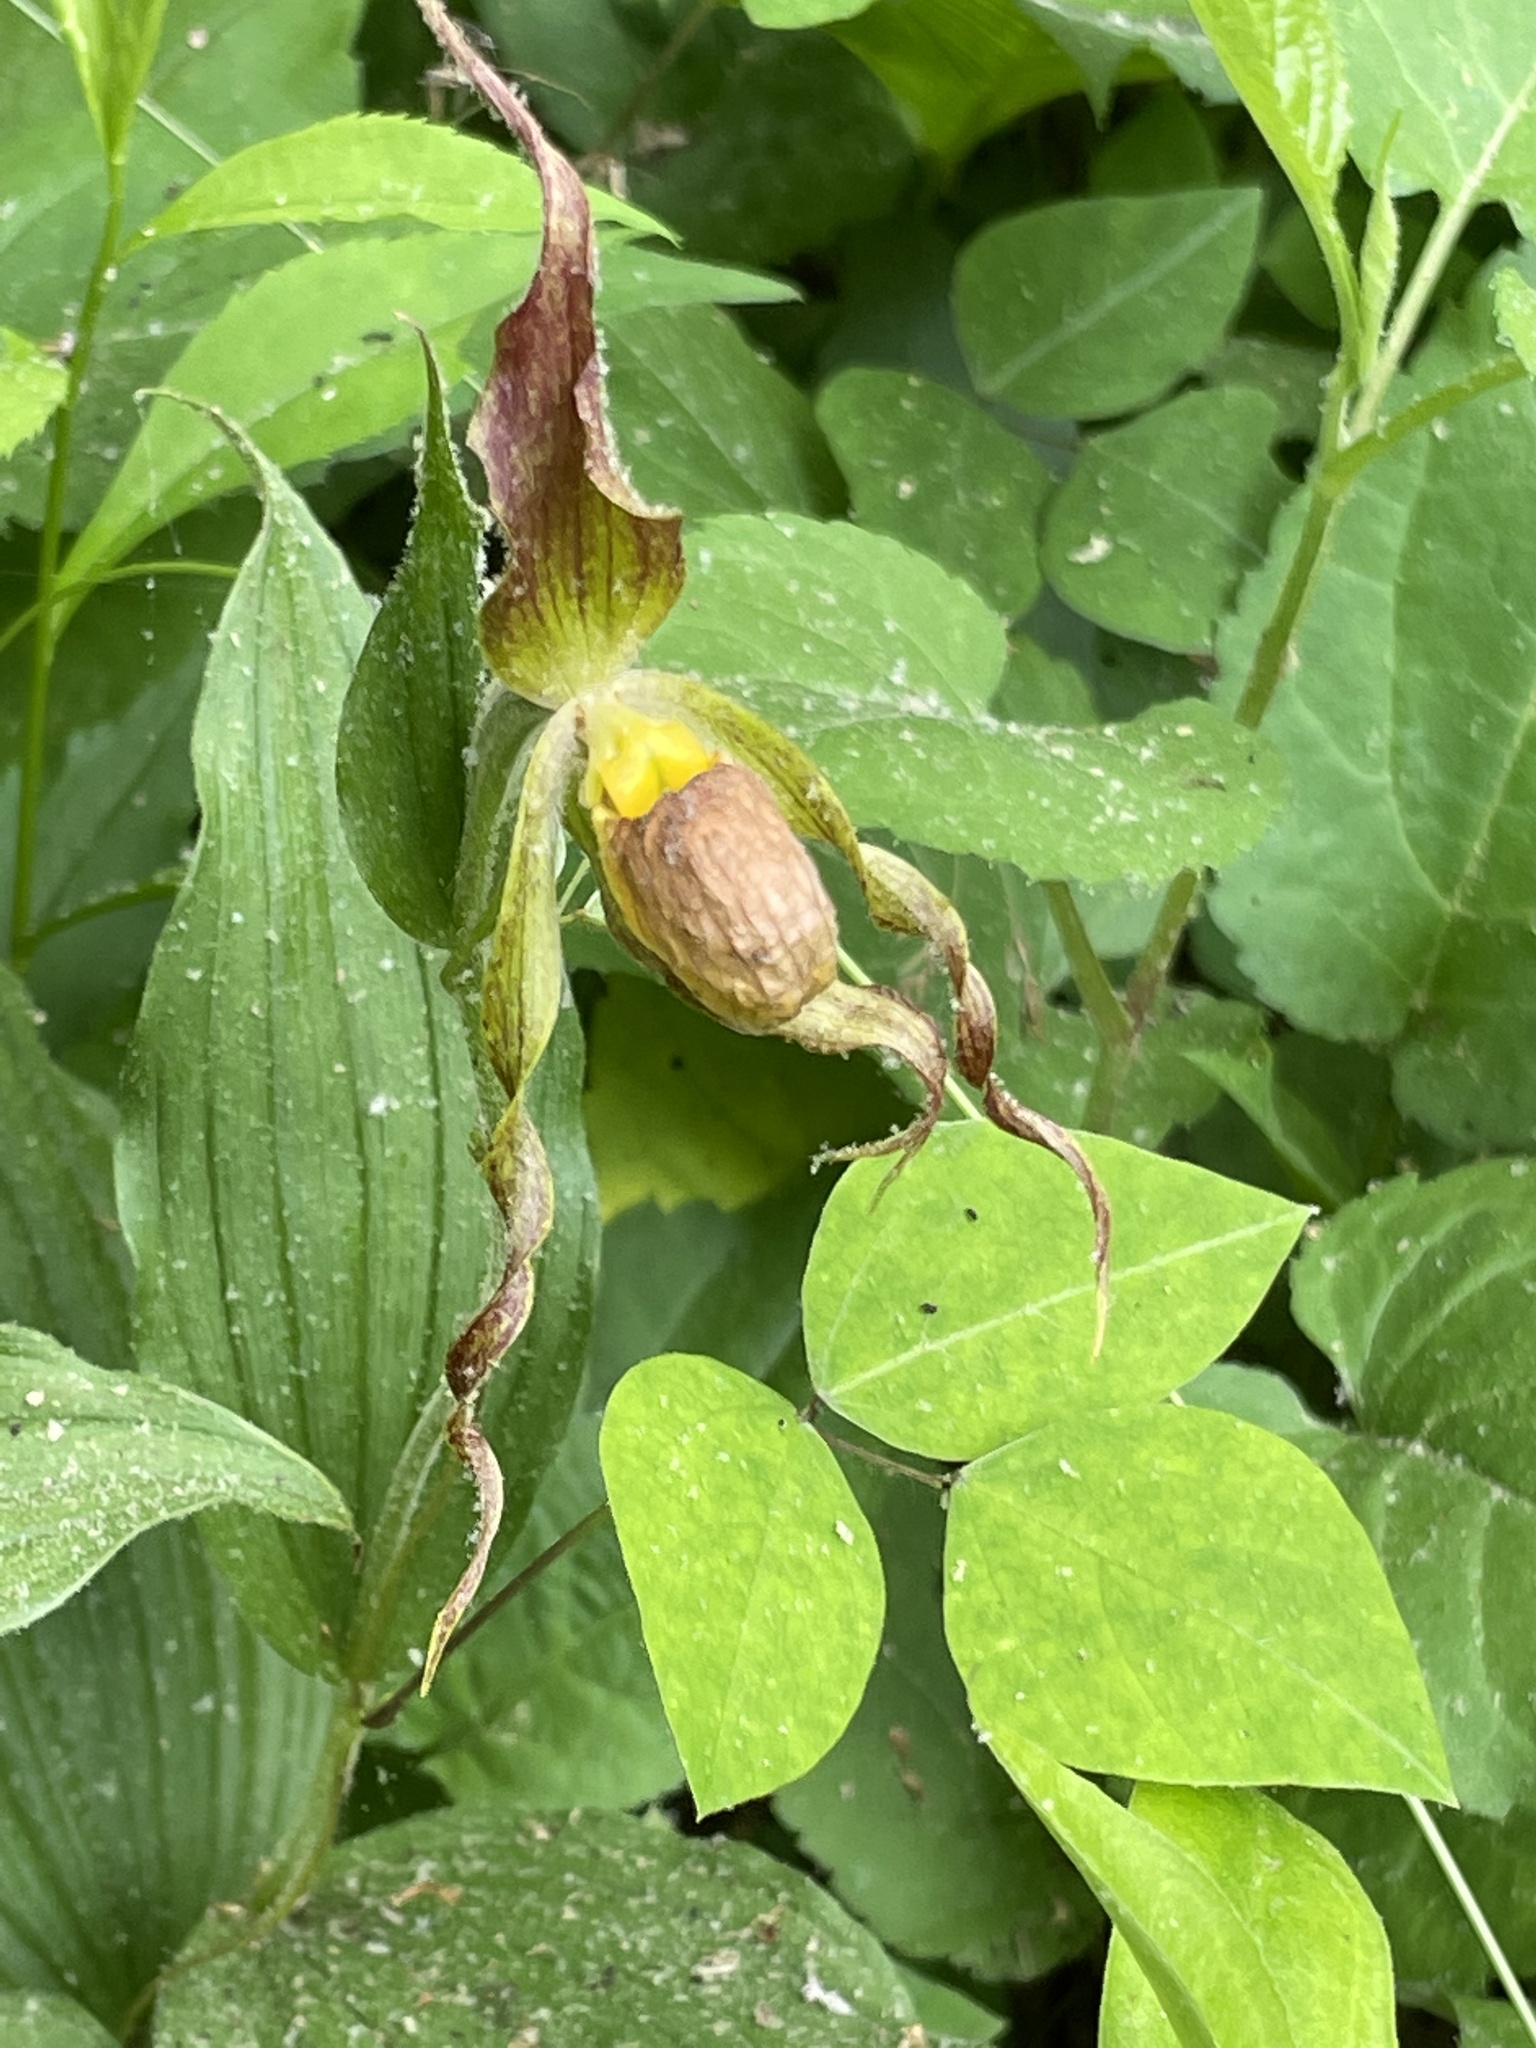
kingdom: Plantae
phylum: Tracheophyta
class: Liliopsida
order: Asparagales
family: Orchidaceae
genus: Cypripedium
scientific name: Cypripedium parviflorum
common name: American yellow lady's-slipper
